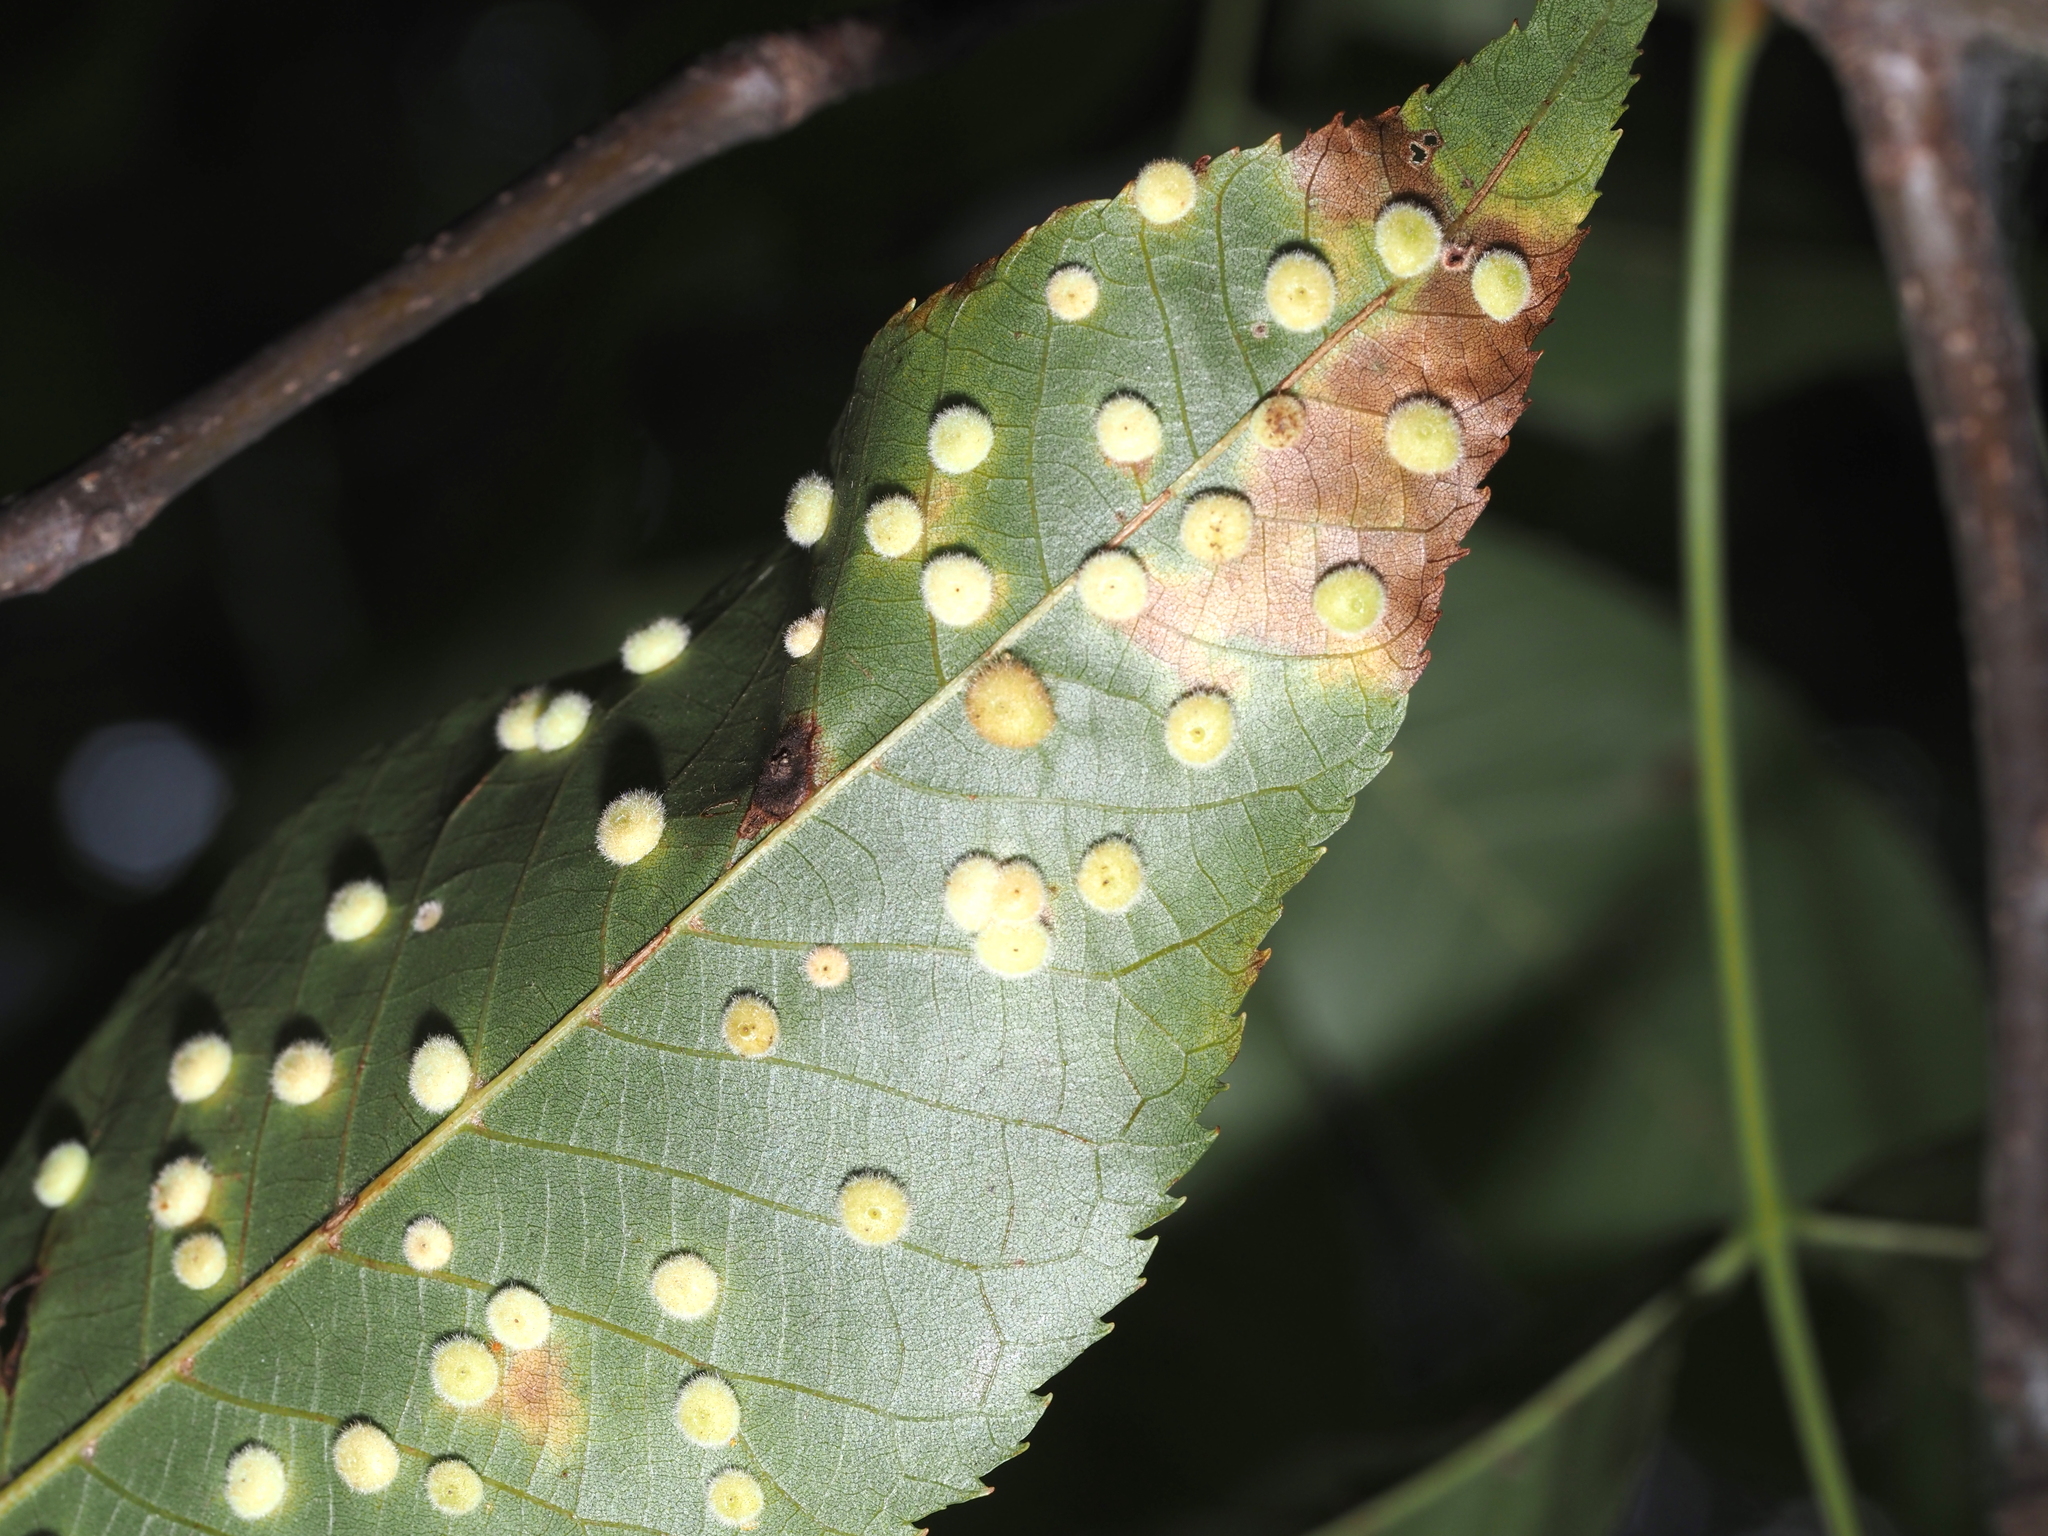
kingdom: Animalia
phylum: Arthropoda
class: Insecta
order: Diptera
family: Cecidomyiidae
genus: Caryomyia
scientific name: Caryomyia thompsoni
